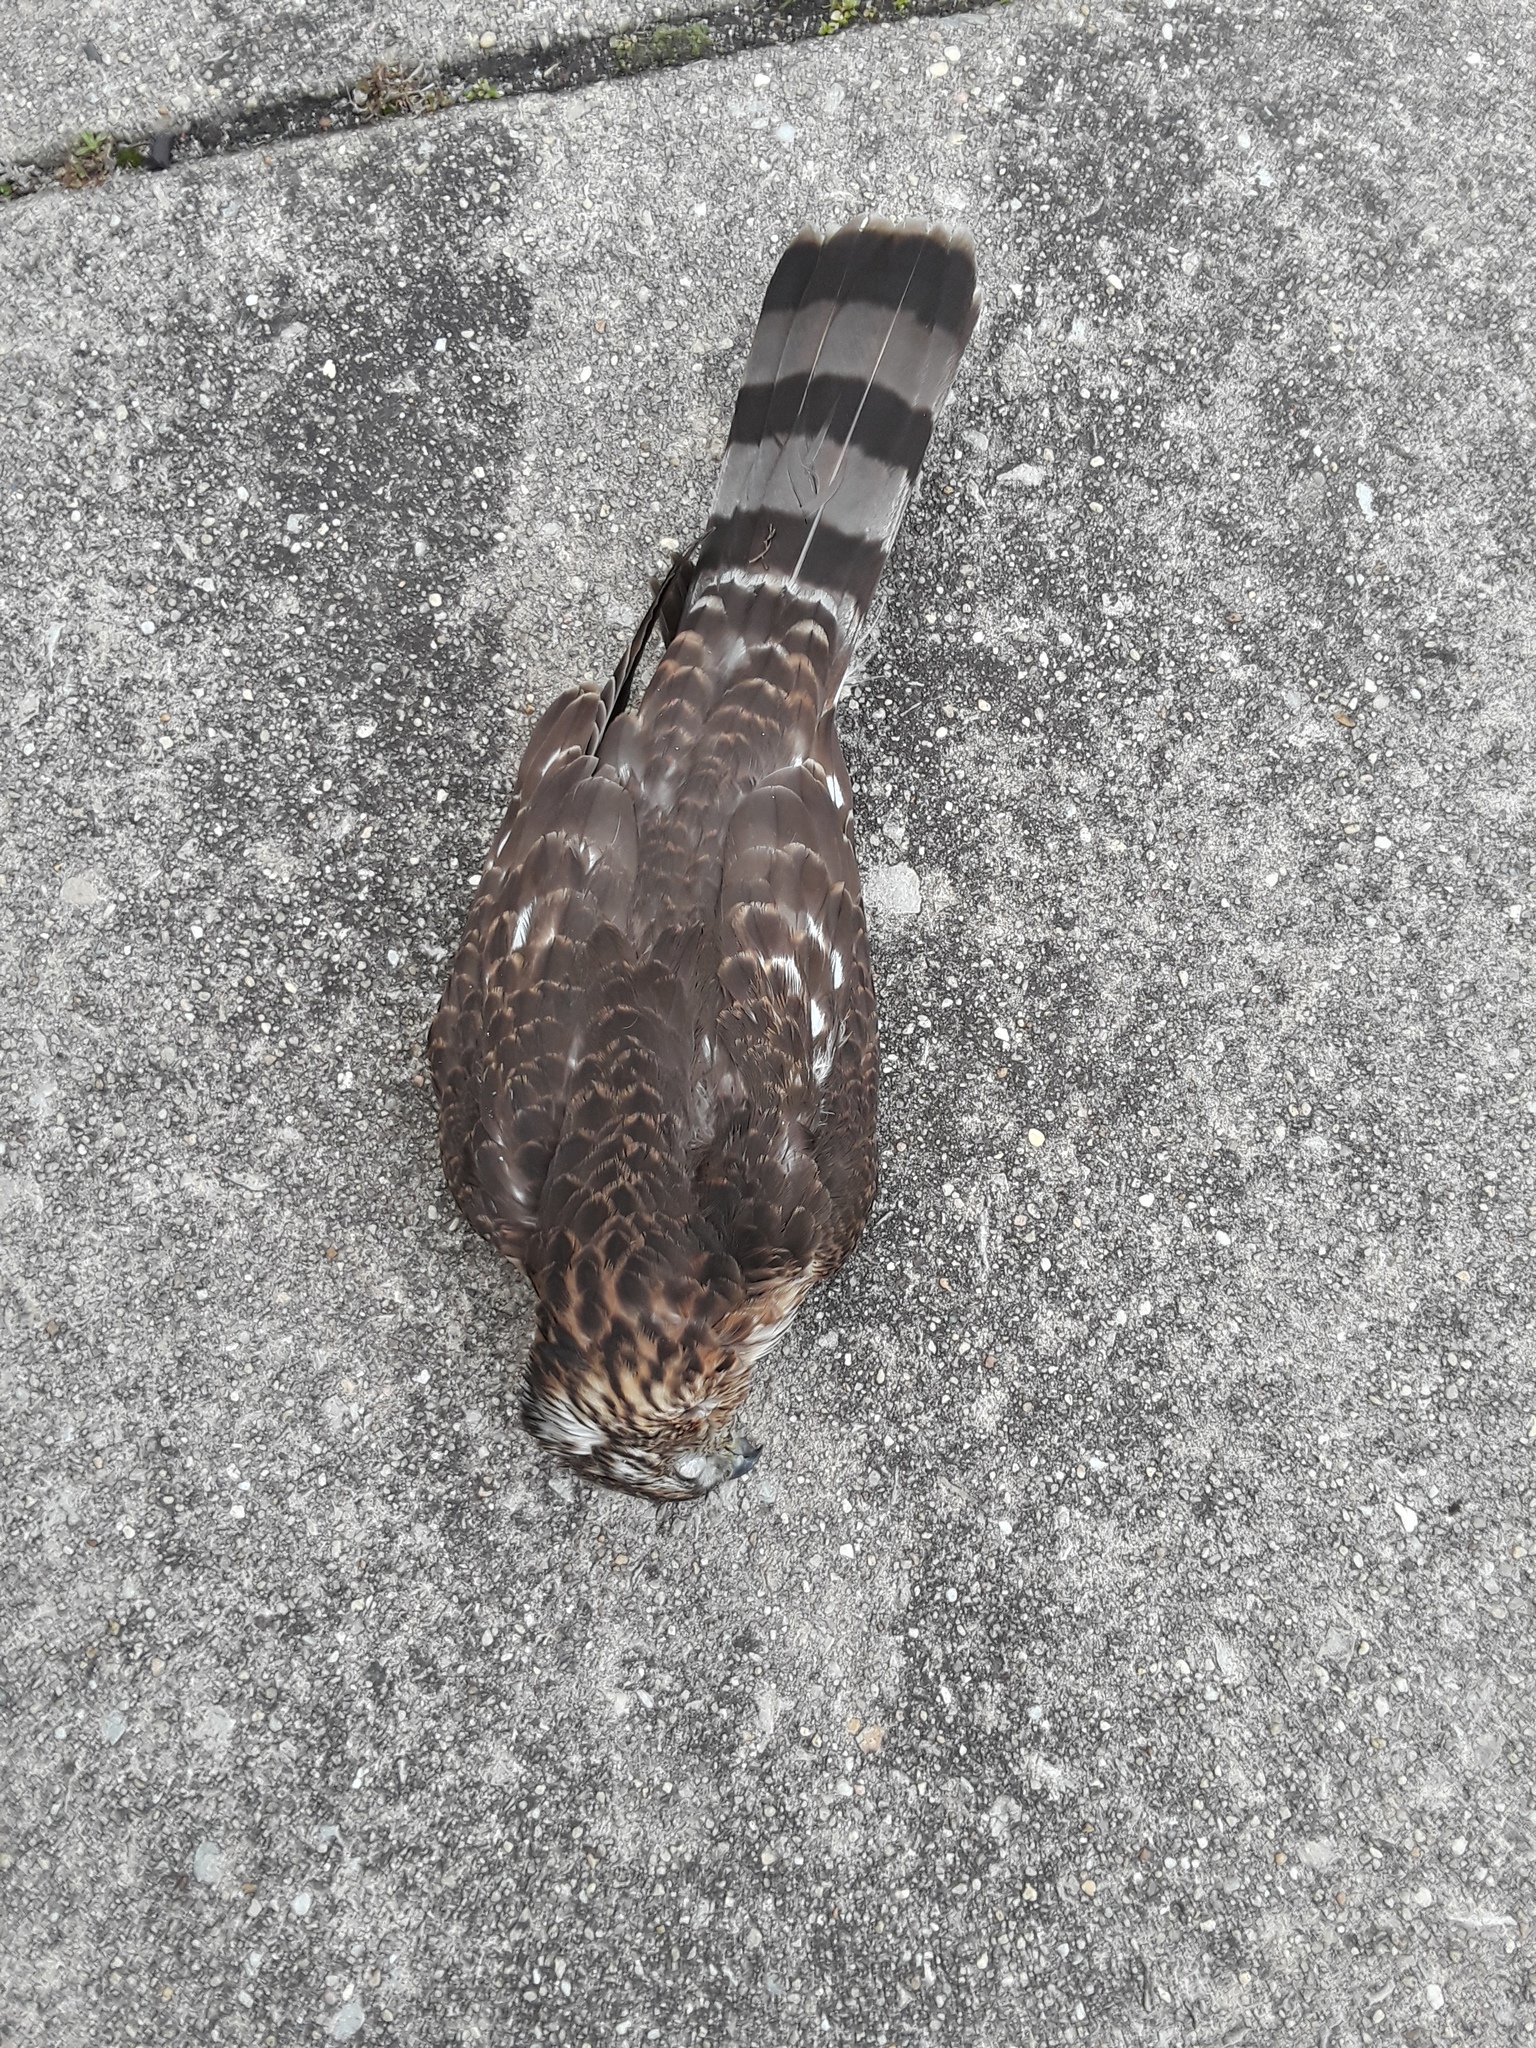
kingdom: Animalia
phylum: Chordata
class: Aves
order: Accipitriformes
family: Accipitridae
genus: Accipiter
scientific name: Accipiter cooperii
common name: Cooper's hawk
